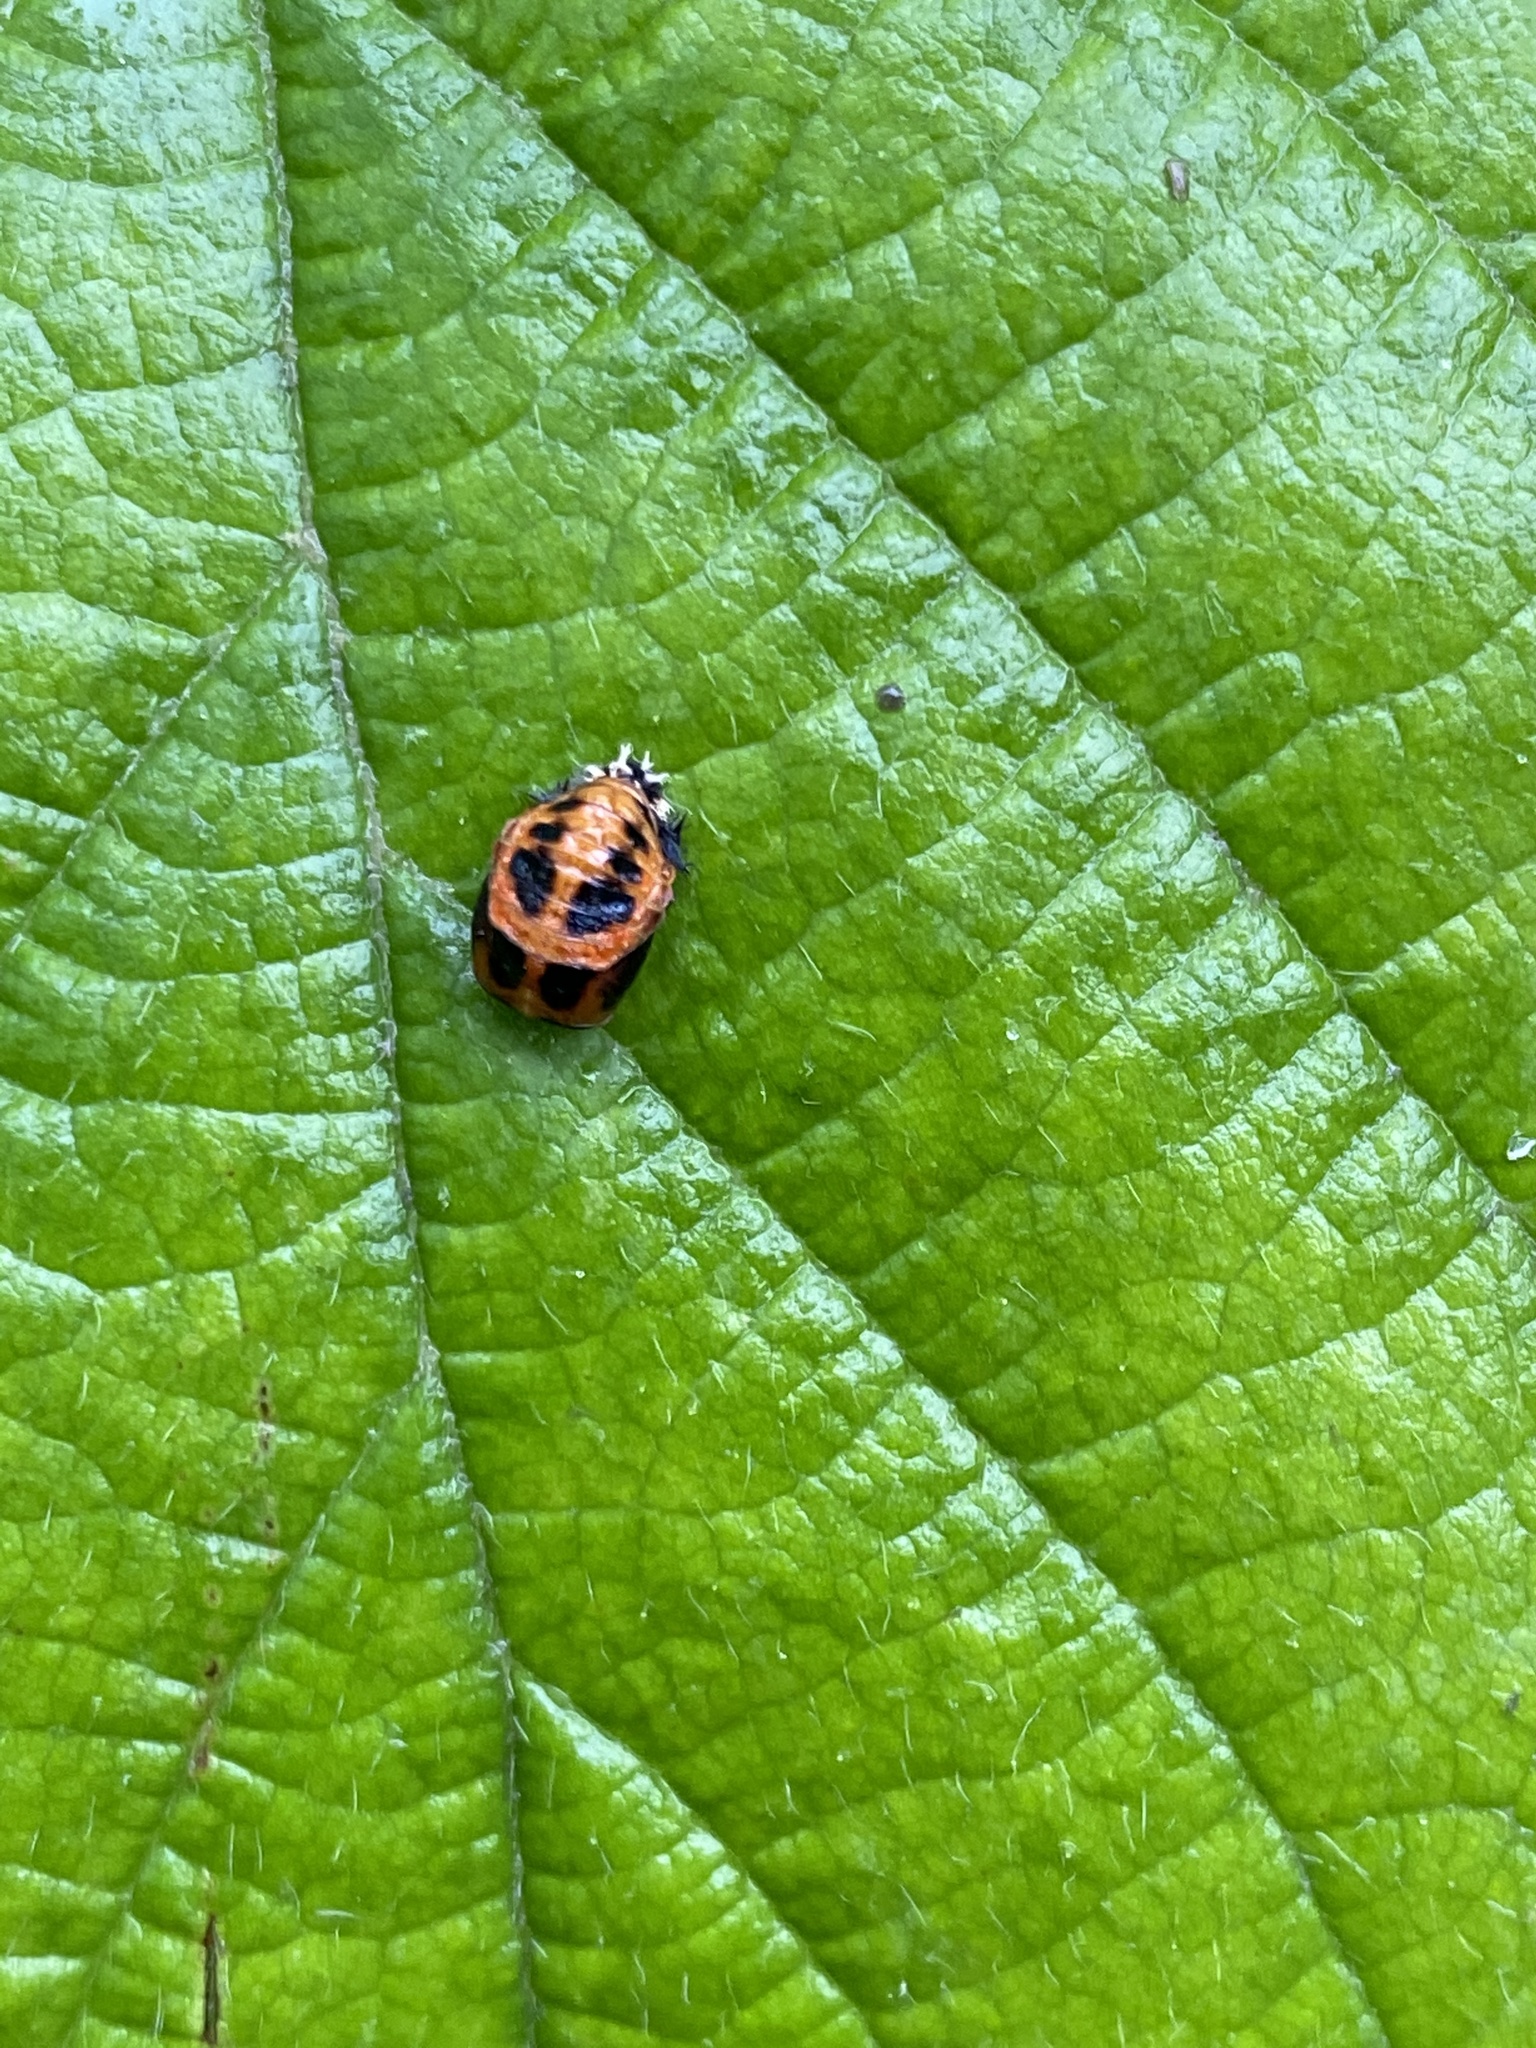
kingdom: Animalia
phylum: Arthropoda
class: Insecta
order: Coleoptera
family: Coccinellidae
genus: Harmonia
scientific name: Harmonia axyridis
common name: Harlequin ladybird
